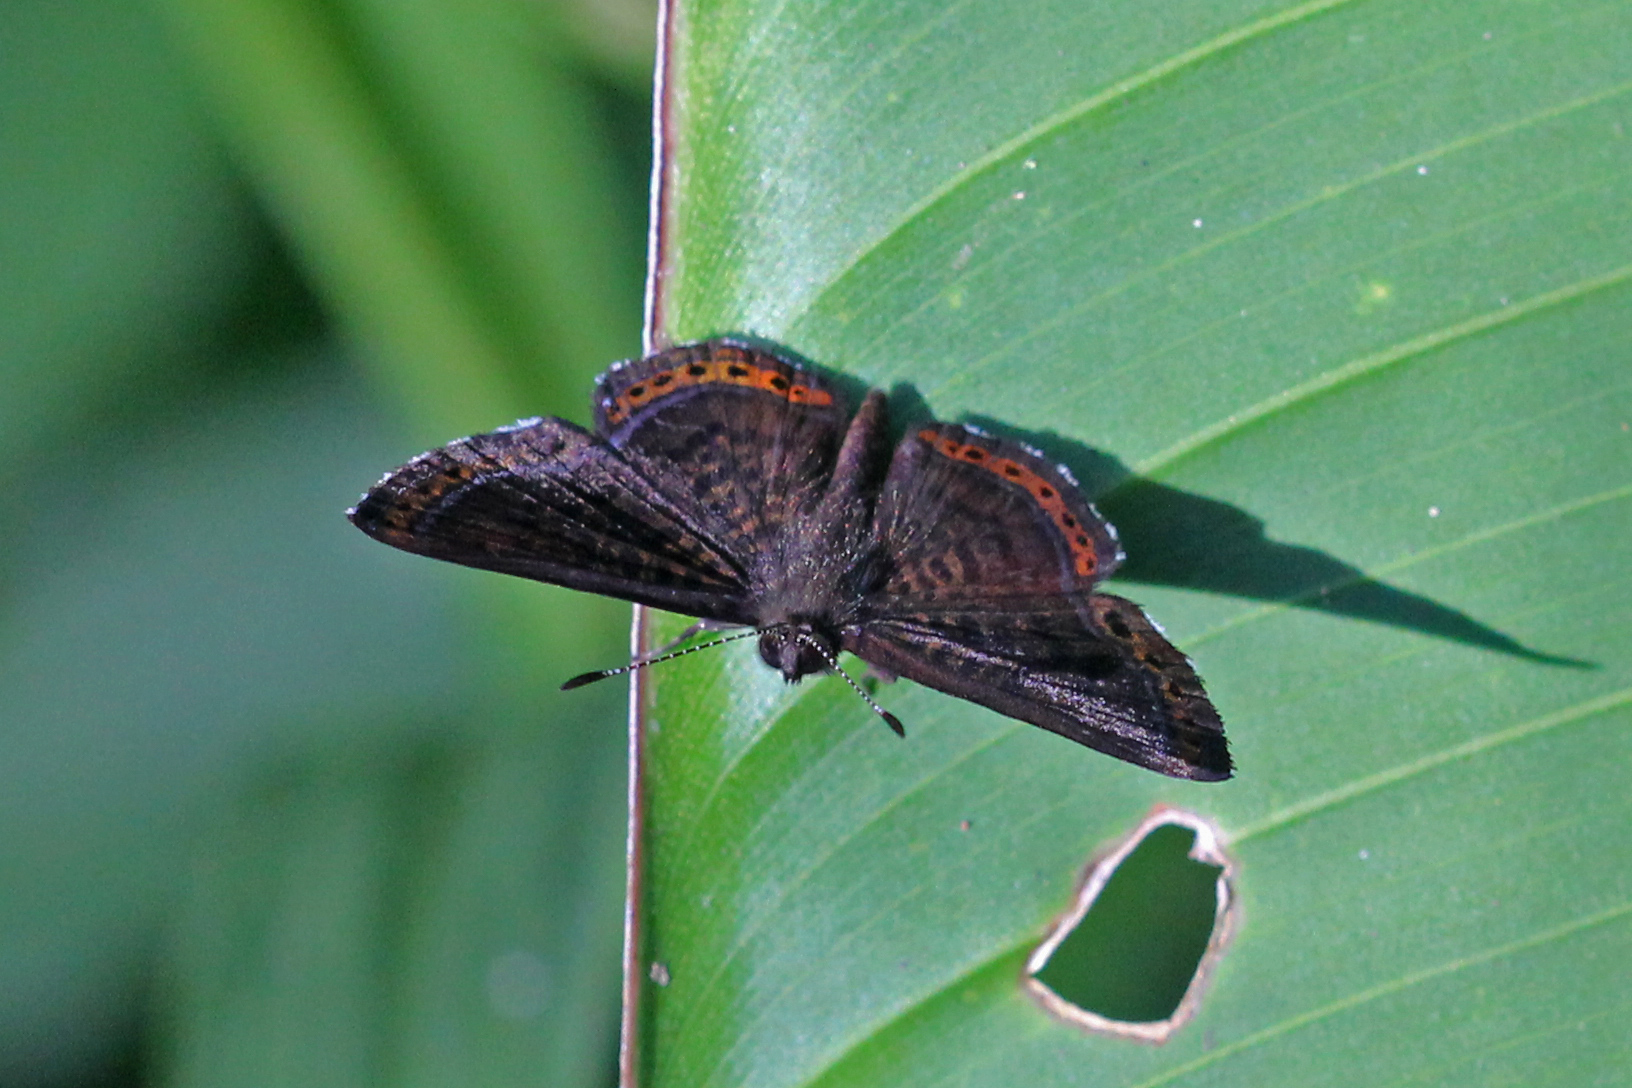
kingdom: Animalia
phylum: Arthropoda
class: Insecta
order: Lepidoptera
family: Riodinidae
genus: Detritivora
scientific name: Detritivora
